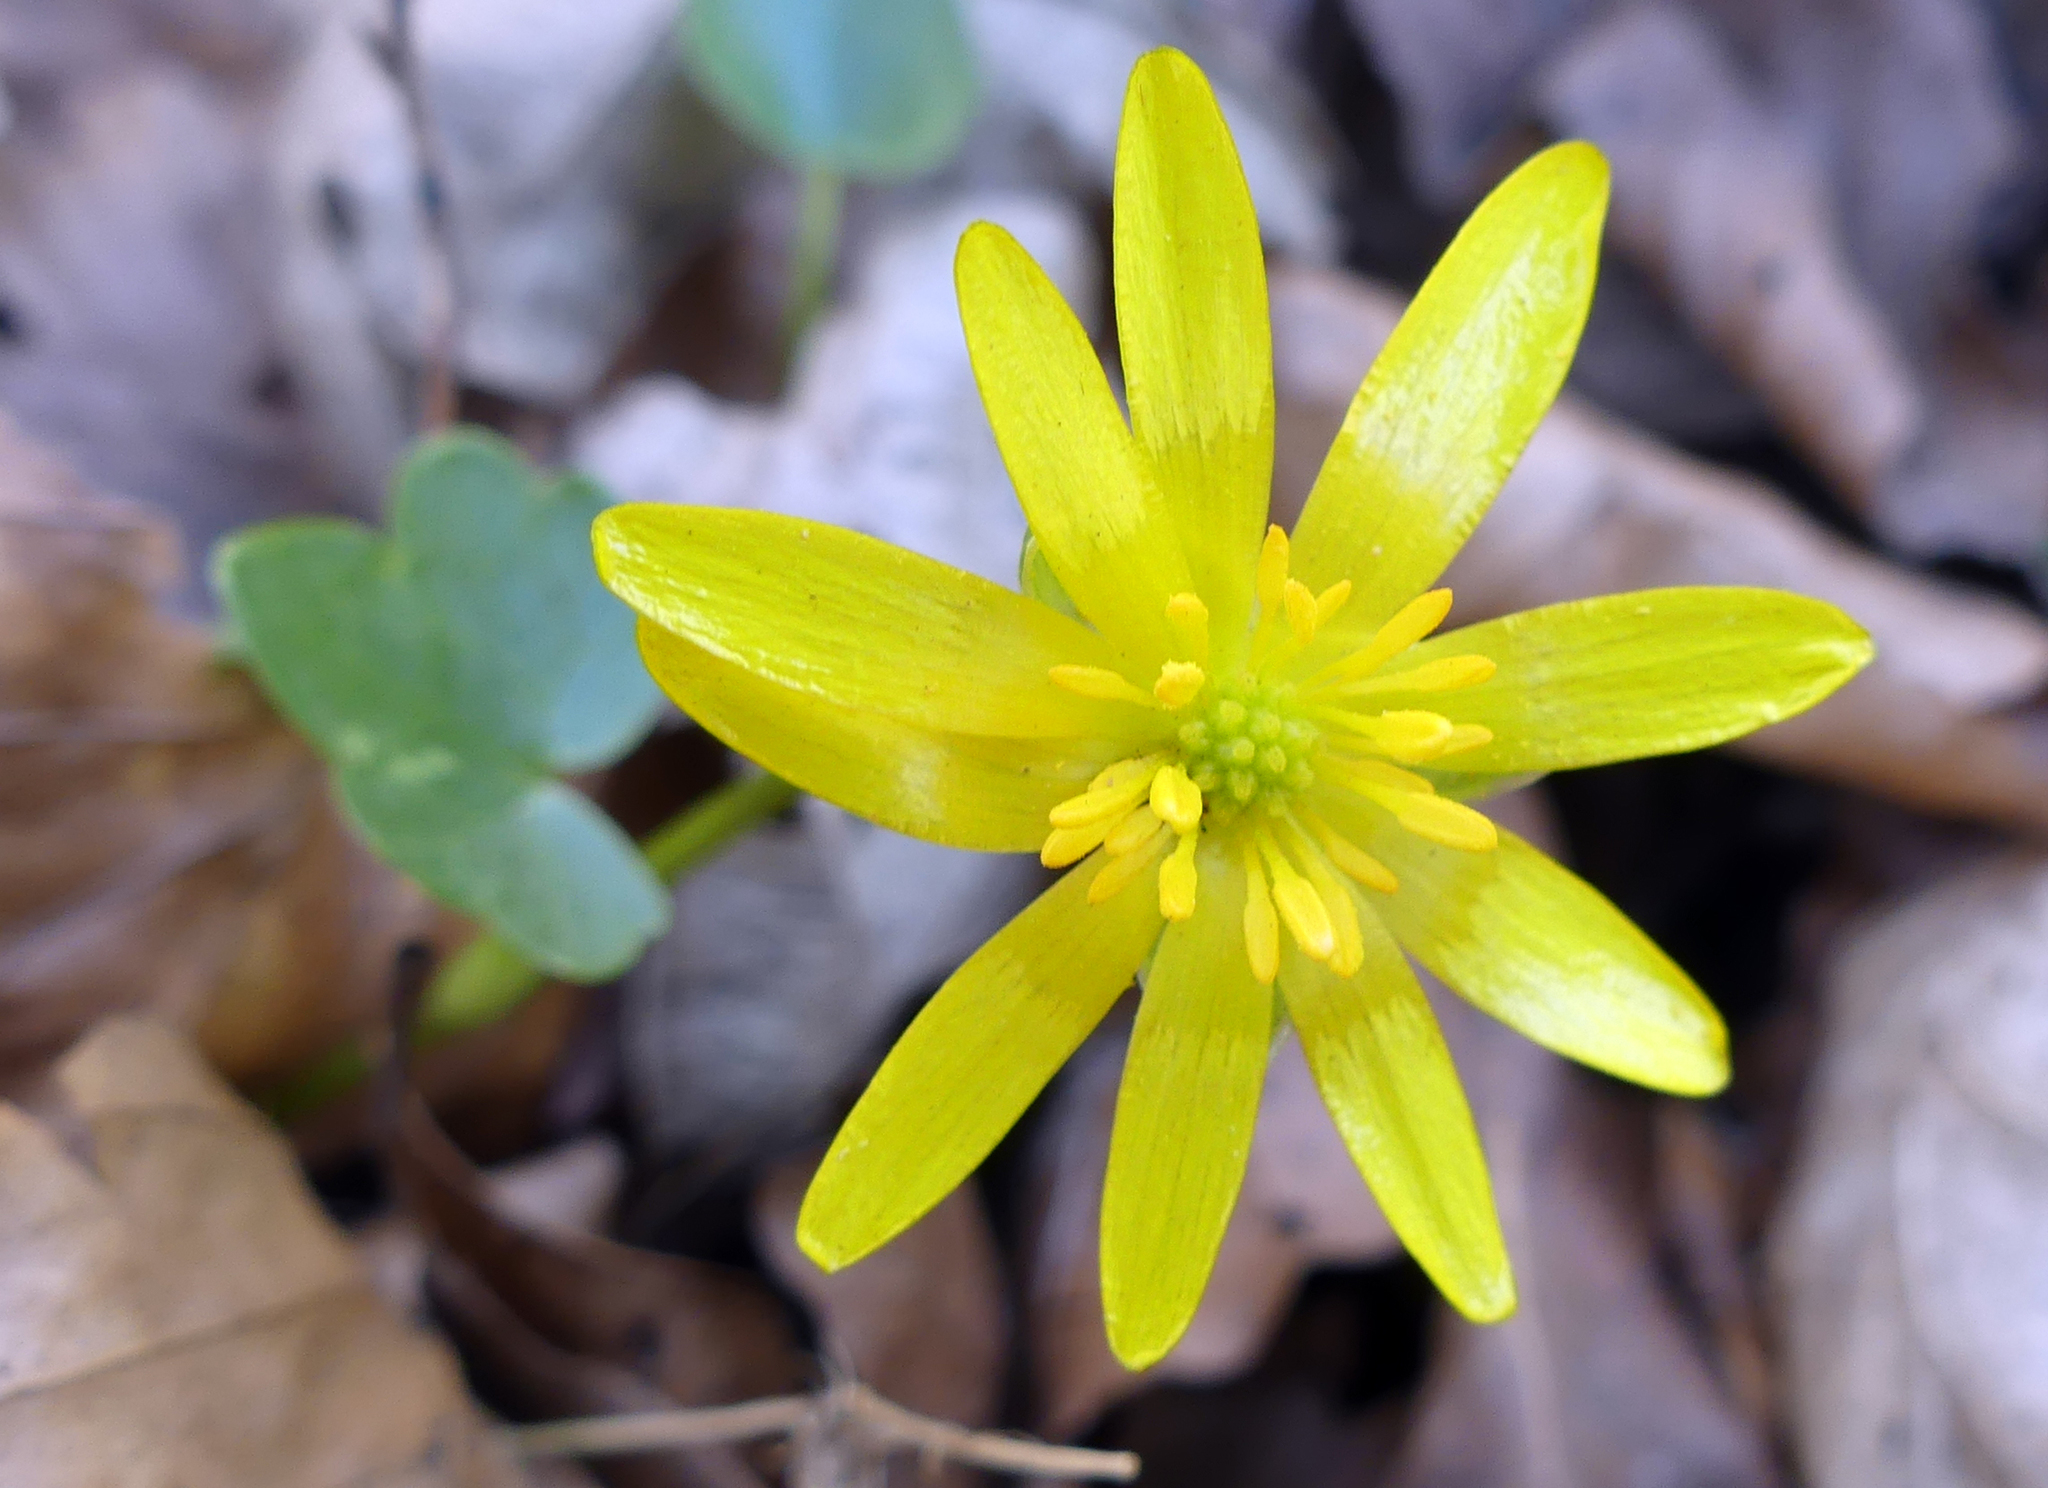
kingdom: Plantae
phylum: Tracheophyta
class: Magnoliopsida
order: Ranunculales
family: Ranunculaceae
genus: Ficaria
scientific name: Ficaria verna
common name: Lesser celandine
